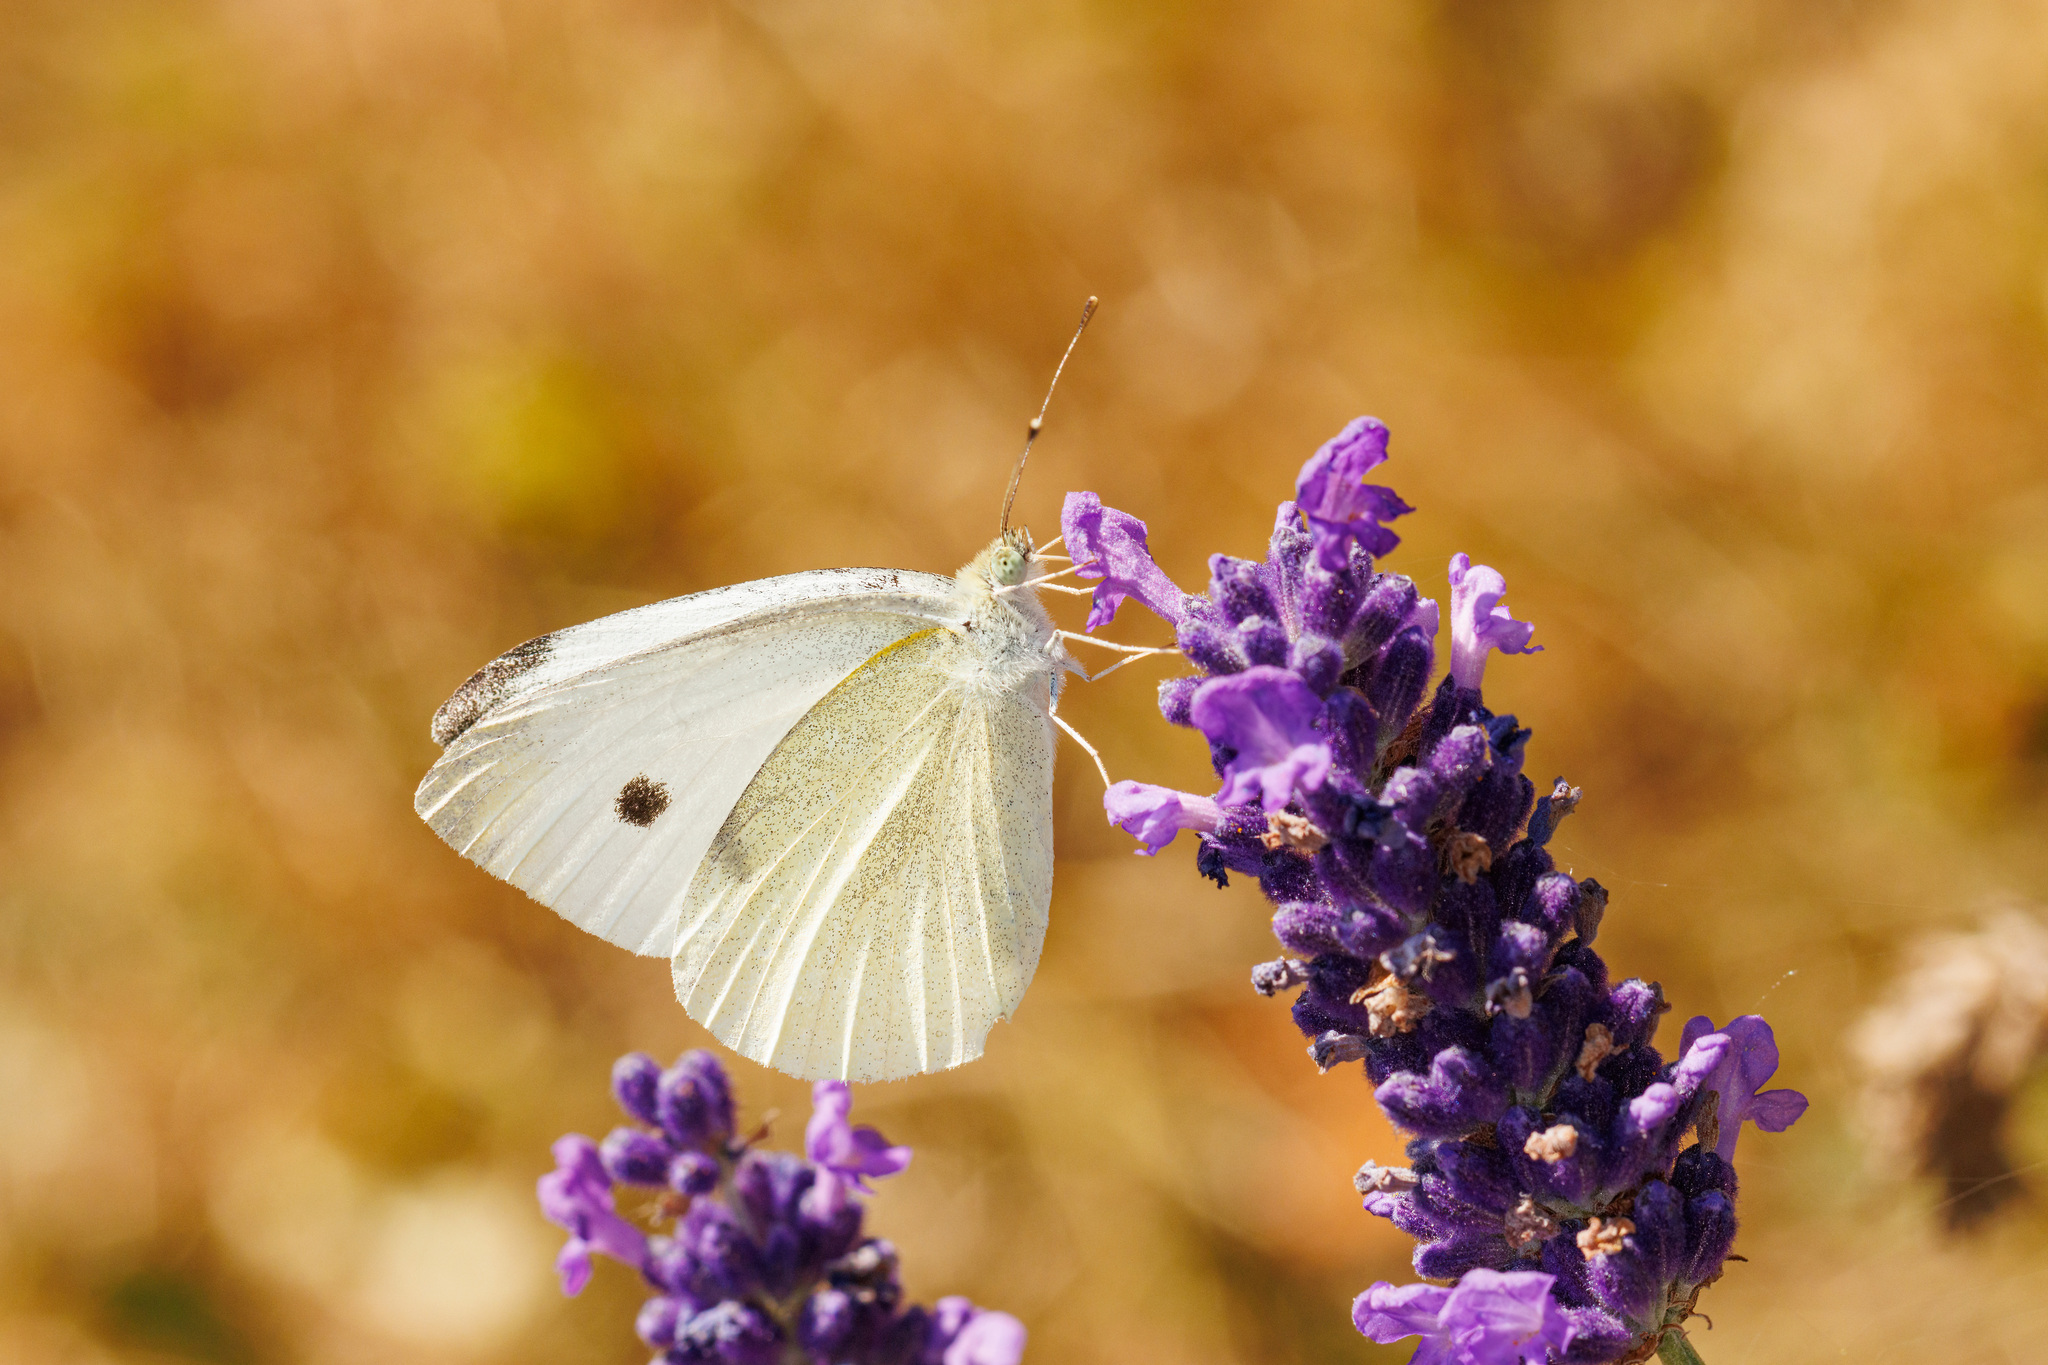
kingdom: Animalia
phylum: Arthropoda
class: Insecta
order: Lepidoptera
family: Pieridae
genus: Pieris
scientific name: Pieris rapae
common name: Small white
